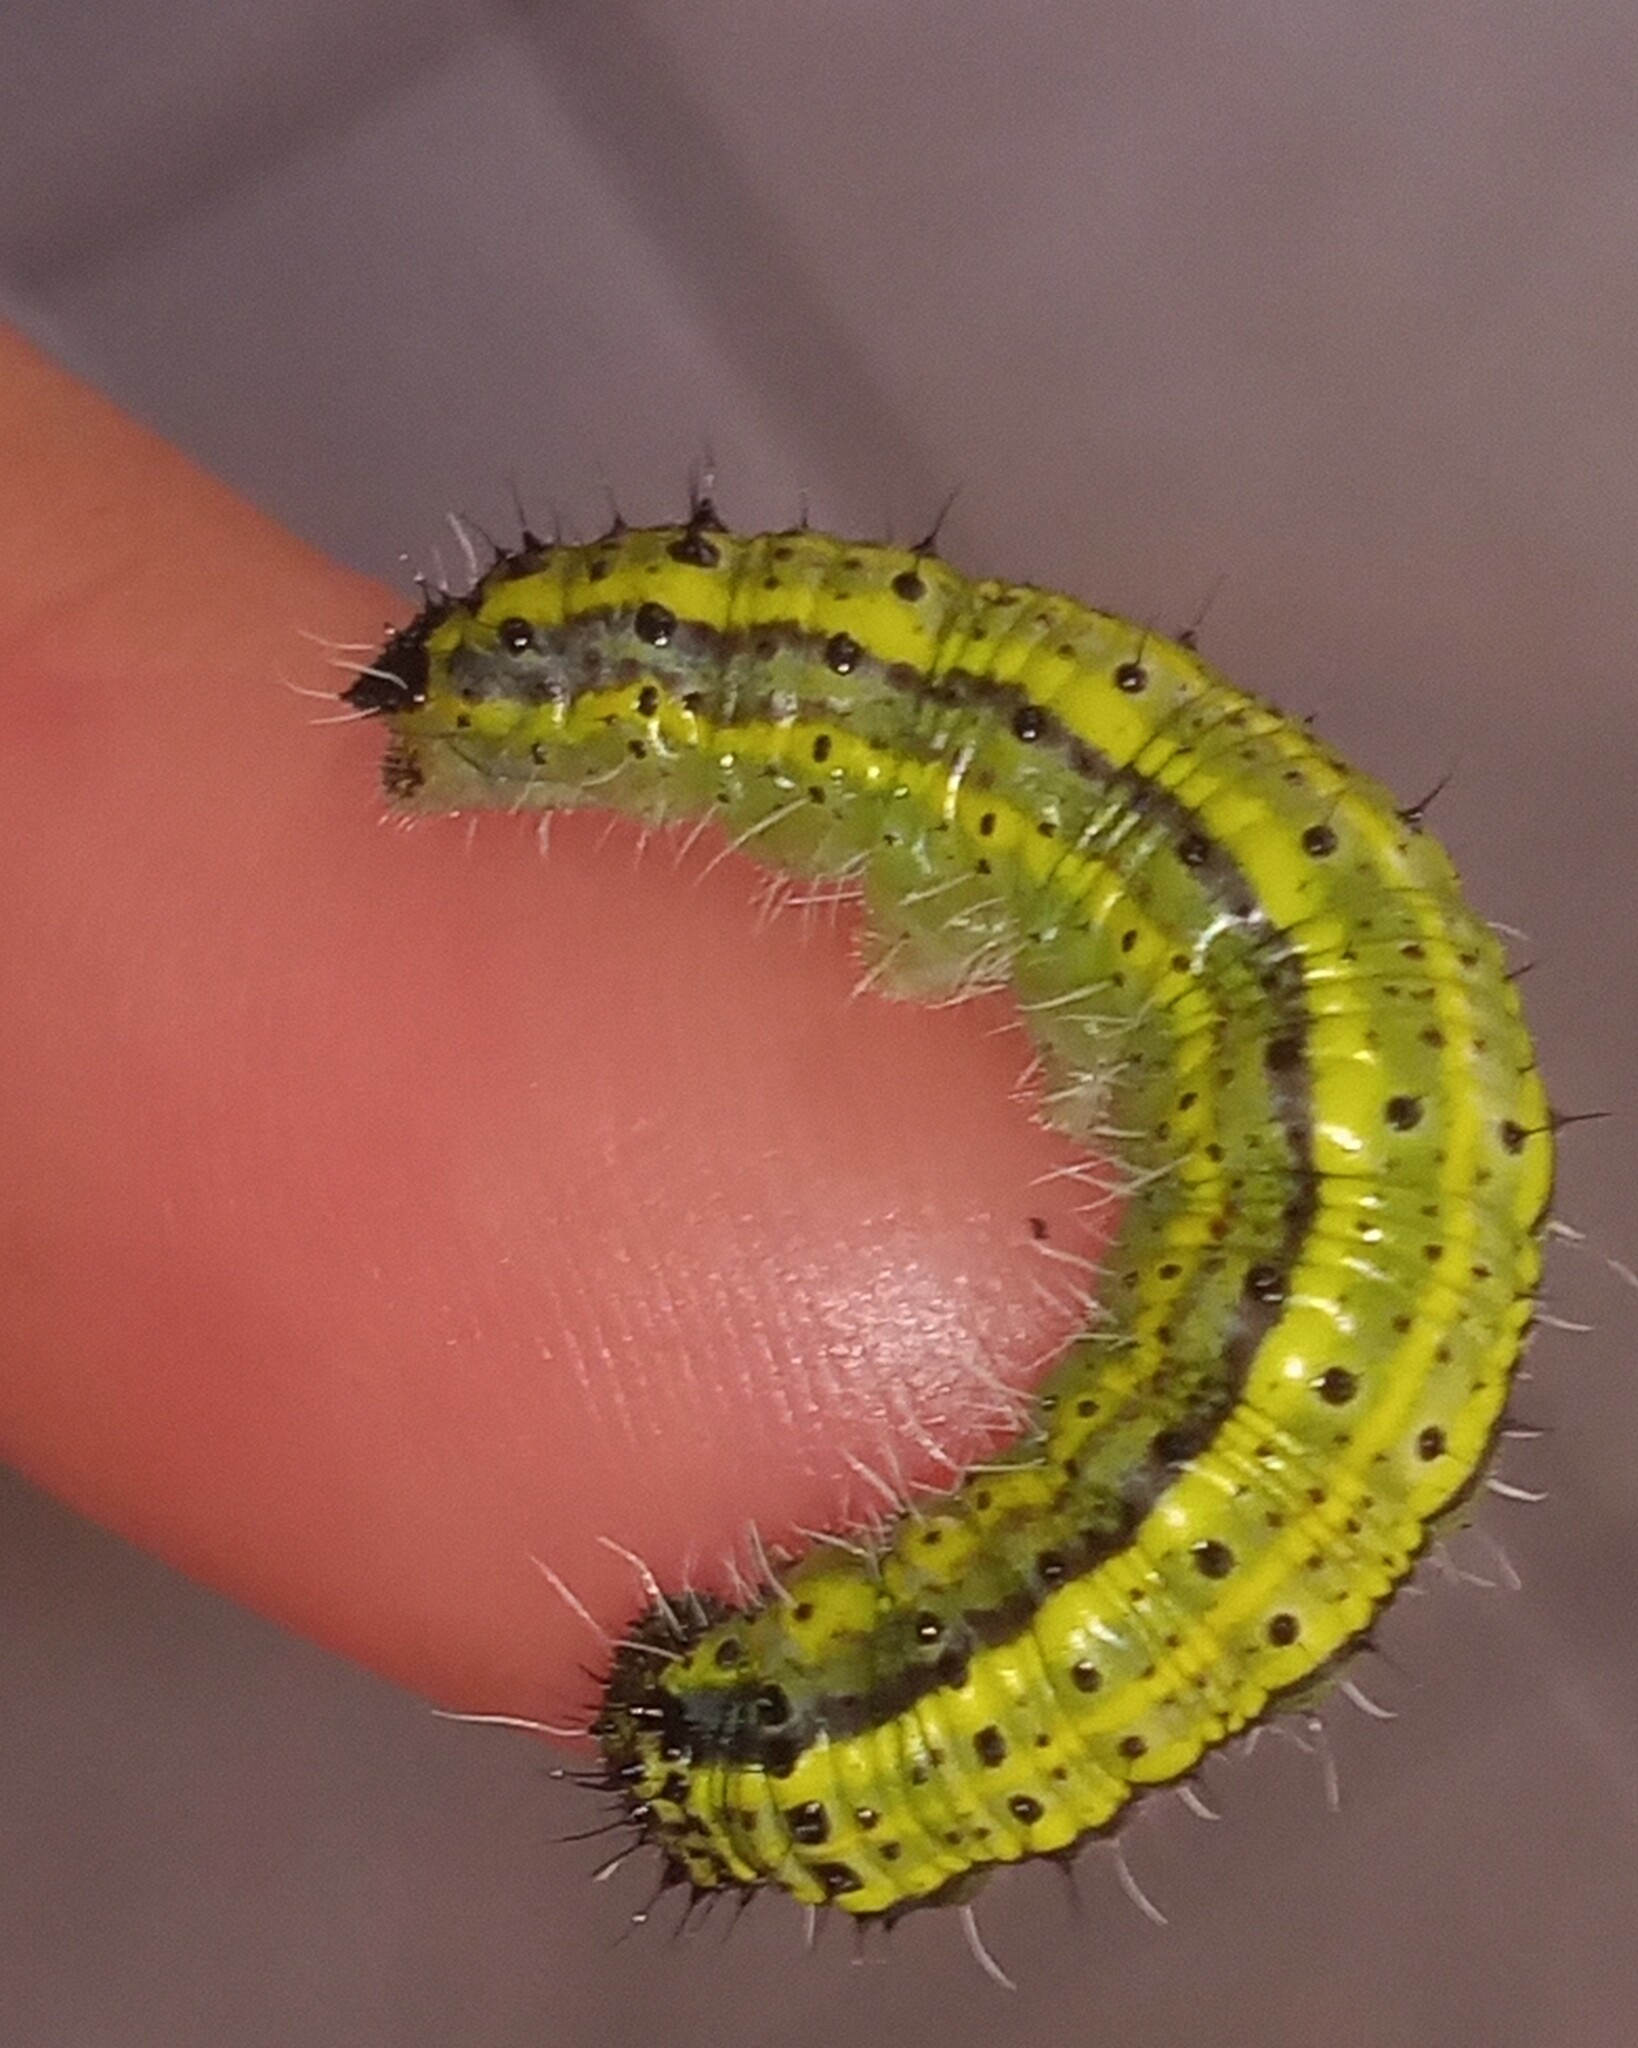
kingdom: Animalia
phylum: Arthropoda
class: Insecta
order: Lepidoptera
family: Pieridae
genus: Ascia
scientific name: Ascia monuste
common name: Great southern white
